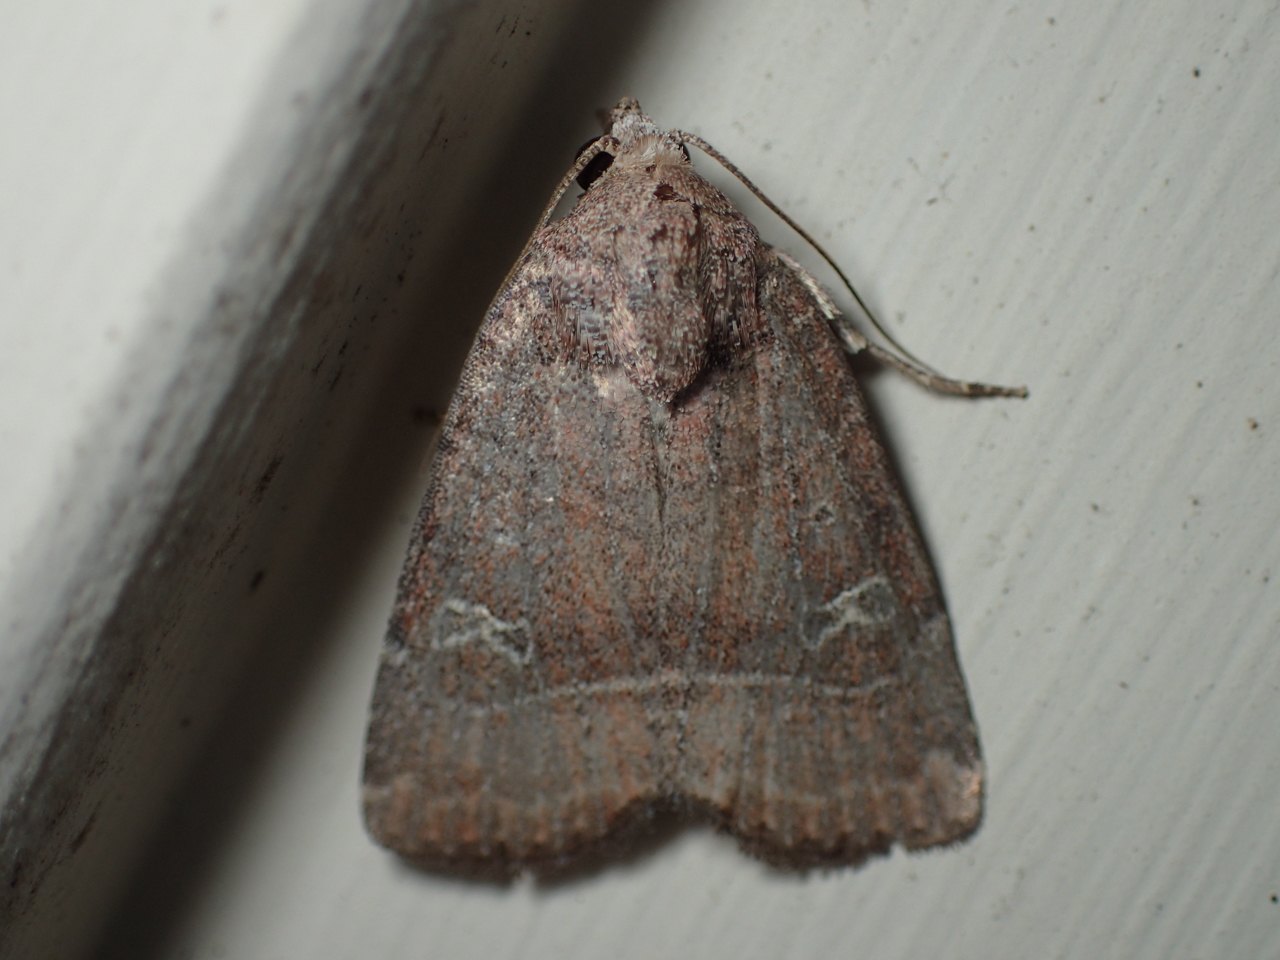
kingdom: Animalia
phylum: Arthropoda
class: Insecta
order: Lepidoptera
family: Noctuidae
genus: Elaphria
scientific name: Elaphria grata
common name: Grateful midget moth
